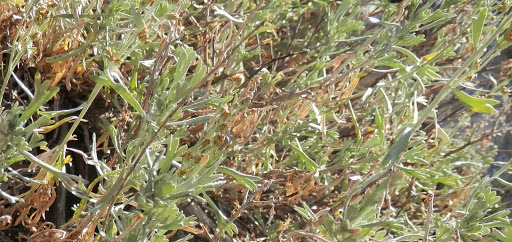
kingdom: Plantae
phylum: Tracheophyta
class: Magnoliopsida
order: Asterales
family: Asteraceae
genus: Artemisia
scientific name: Artemisia tridentata
